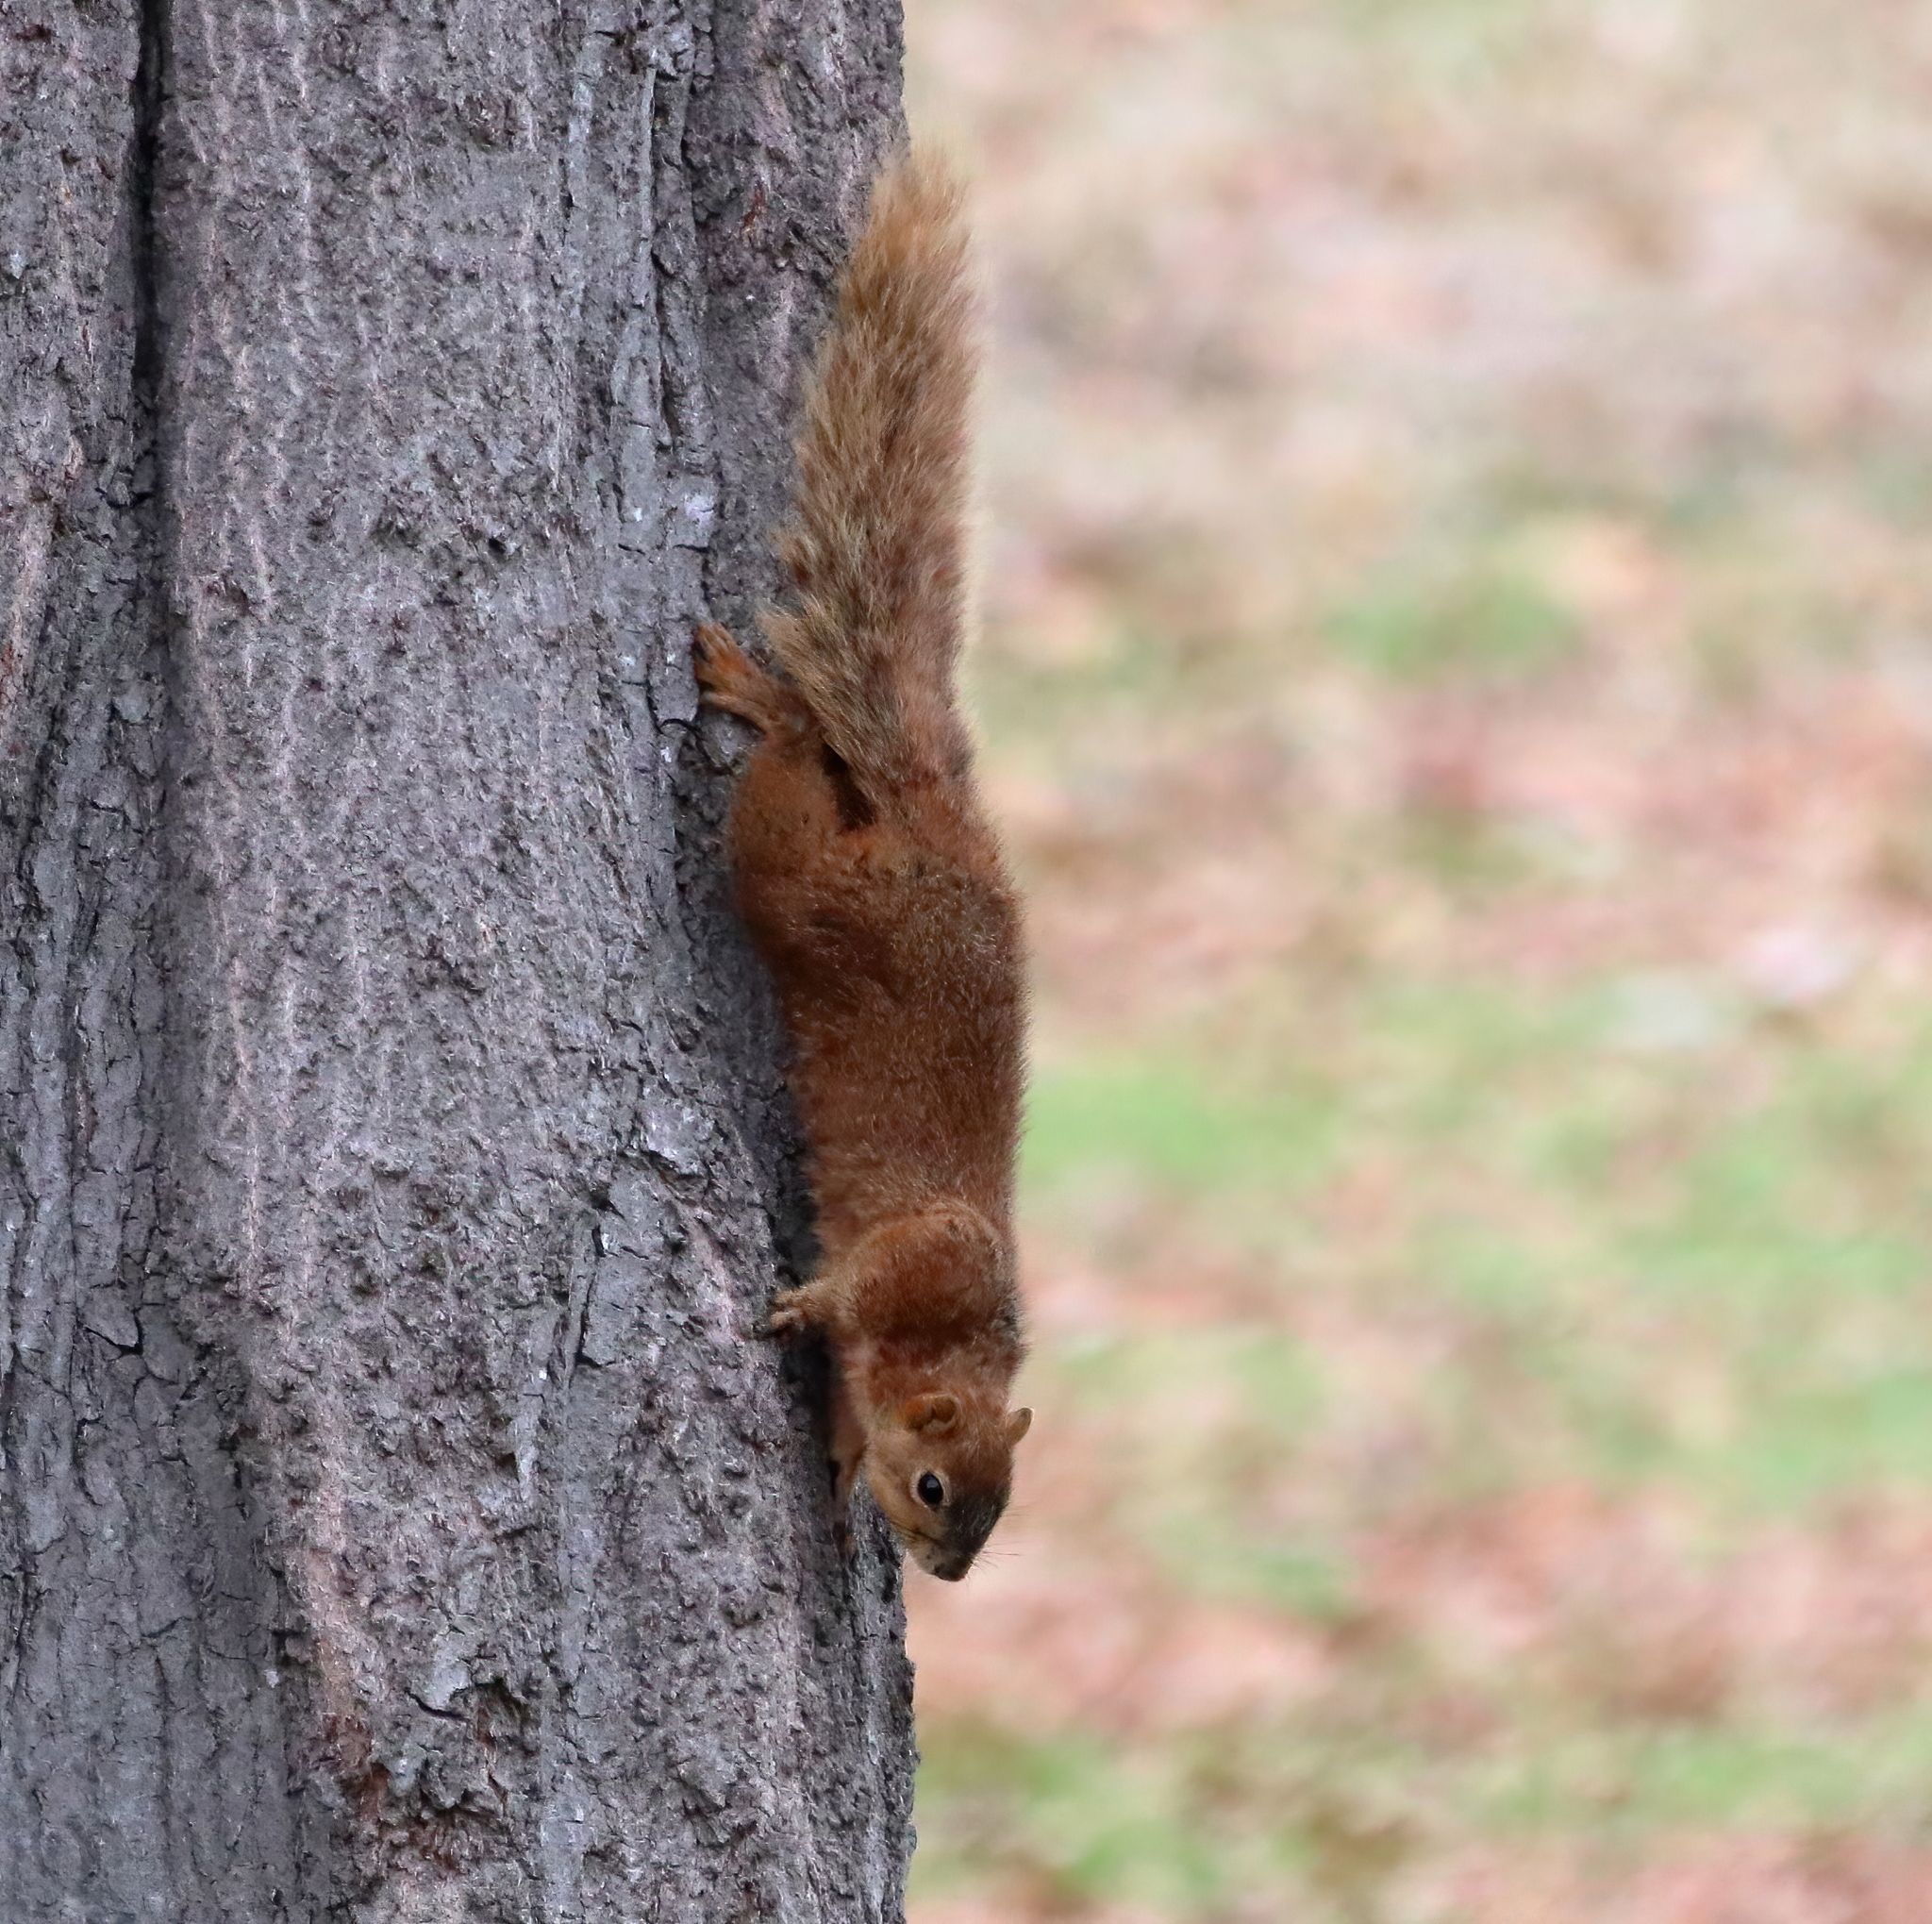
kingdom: Animalia
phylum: Chordata
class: Mammalia
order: Rodentia
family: Sciuridae
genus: Sciurus
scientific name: Sciurus niger
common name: Fox squirrel
